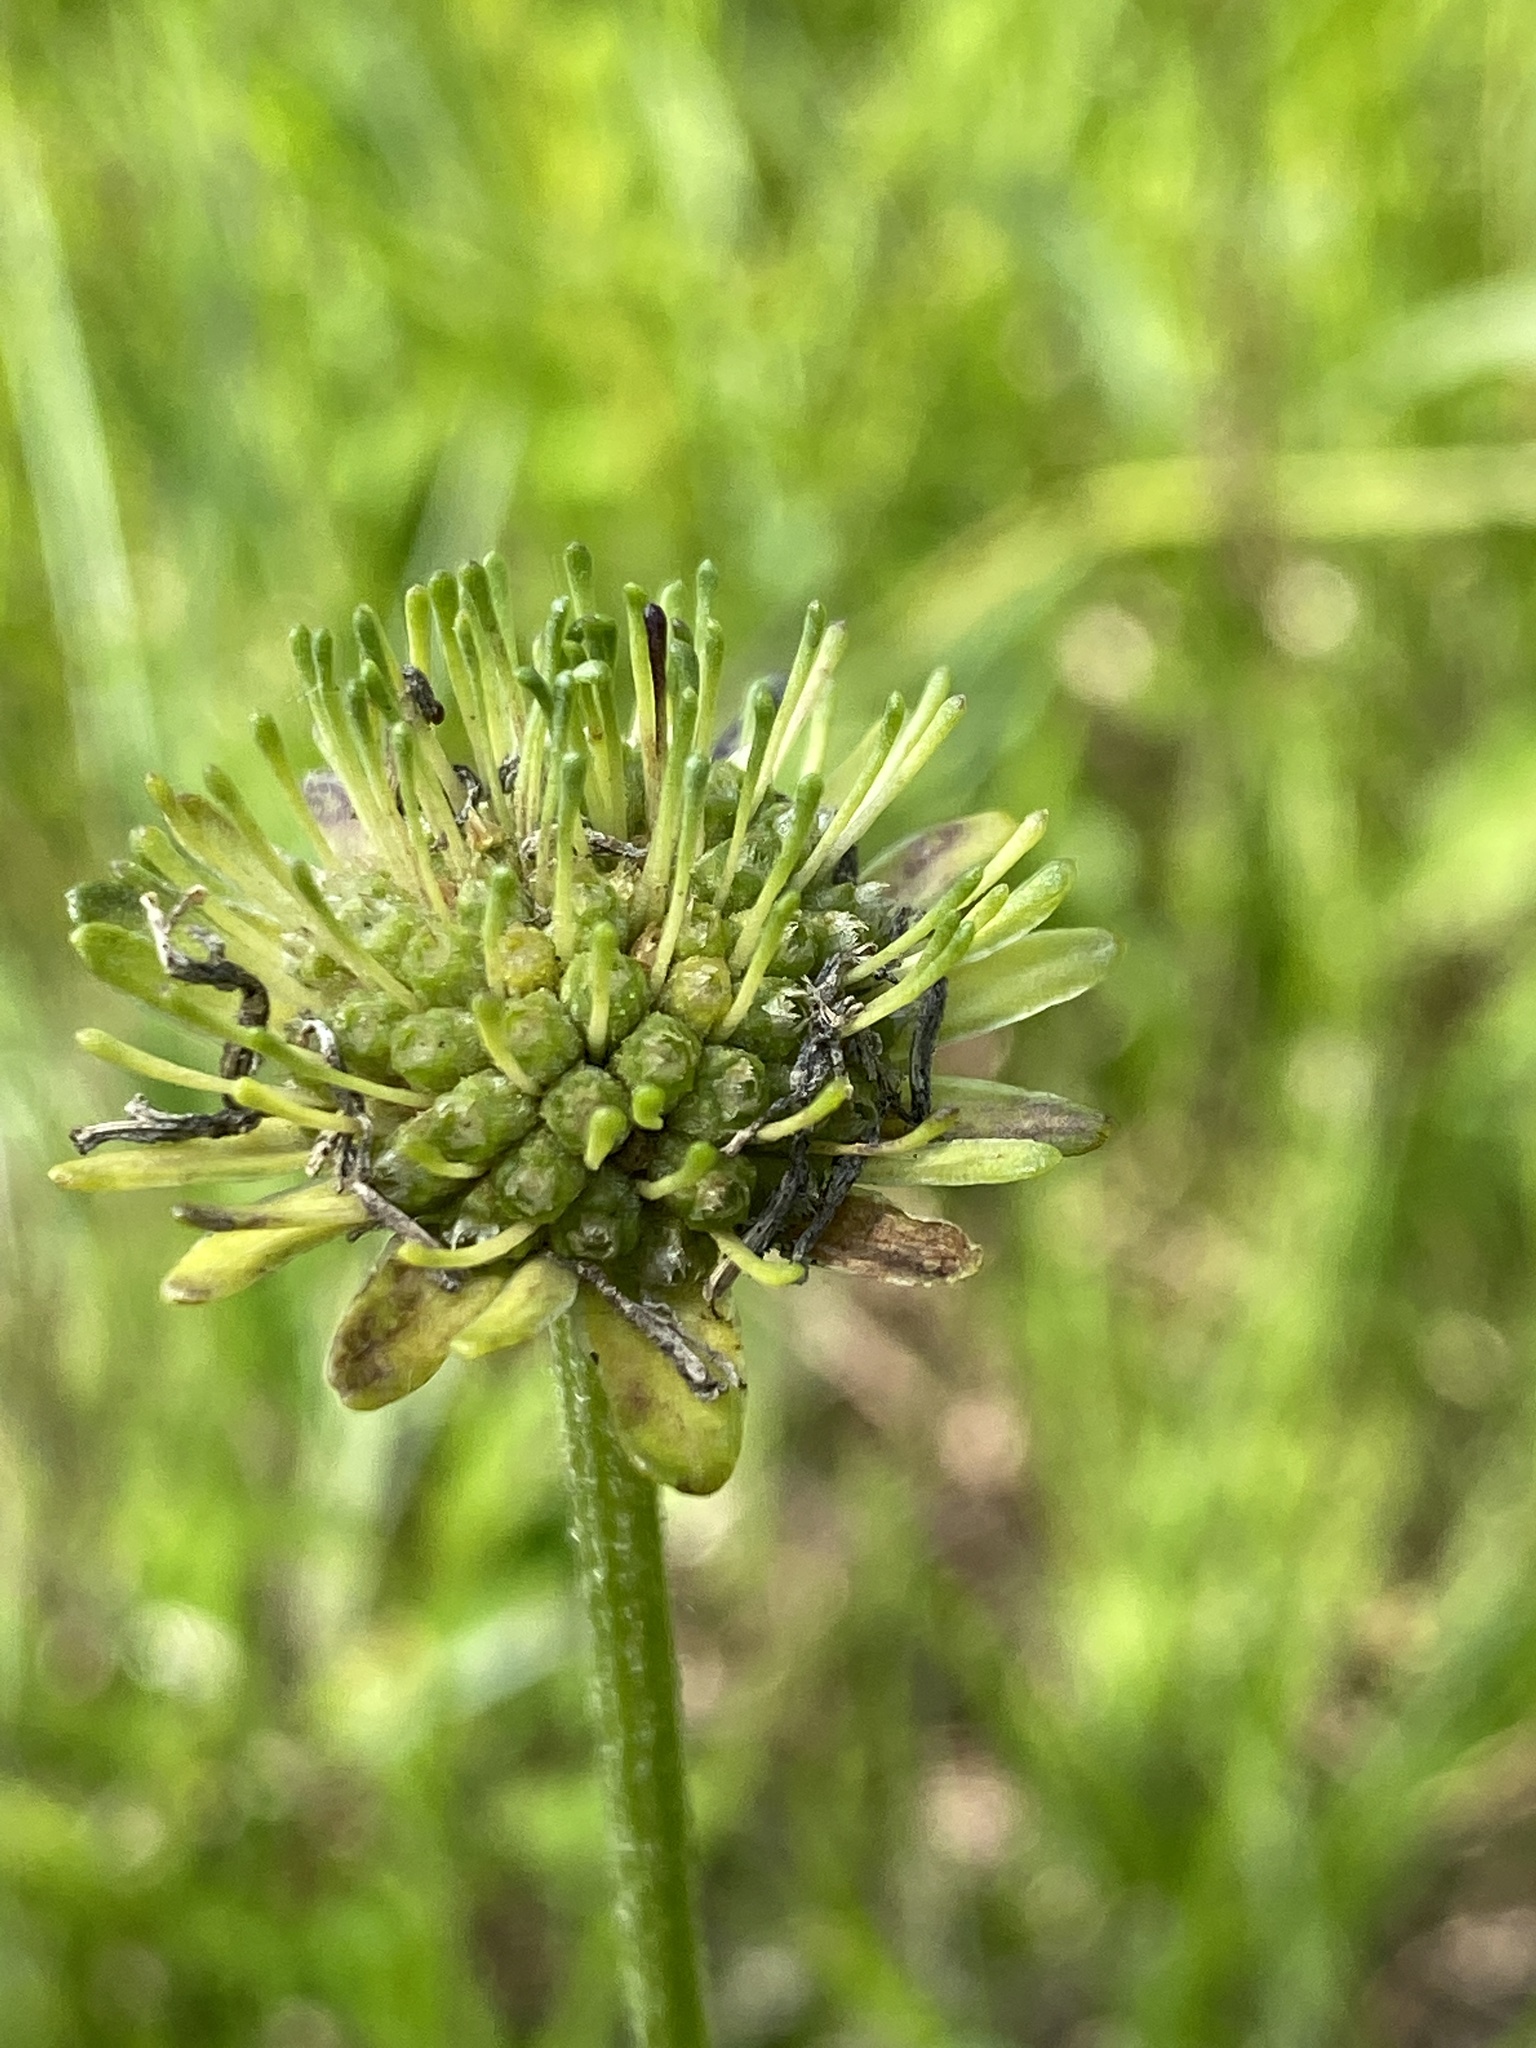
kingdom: Plantae
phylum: Tracheophyta
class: Magnoliopsida
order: Asterales
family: Asteraceae
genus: Marshallia
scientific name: Marshallia obovata
